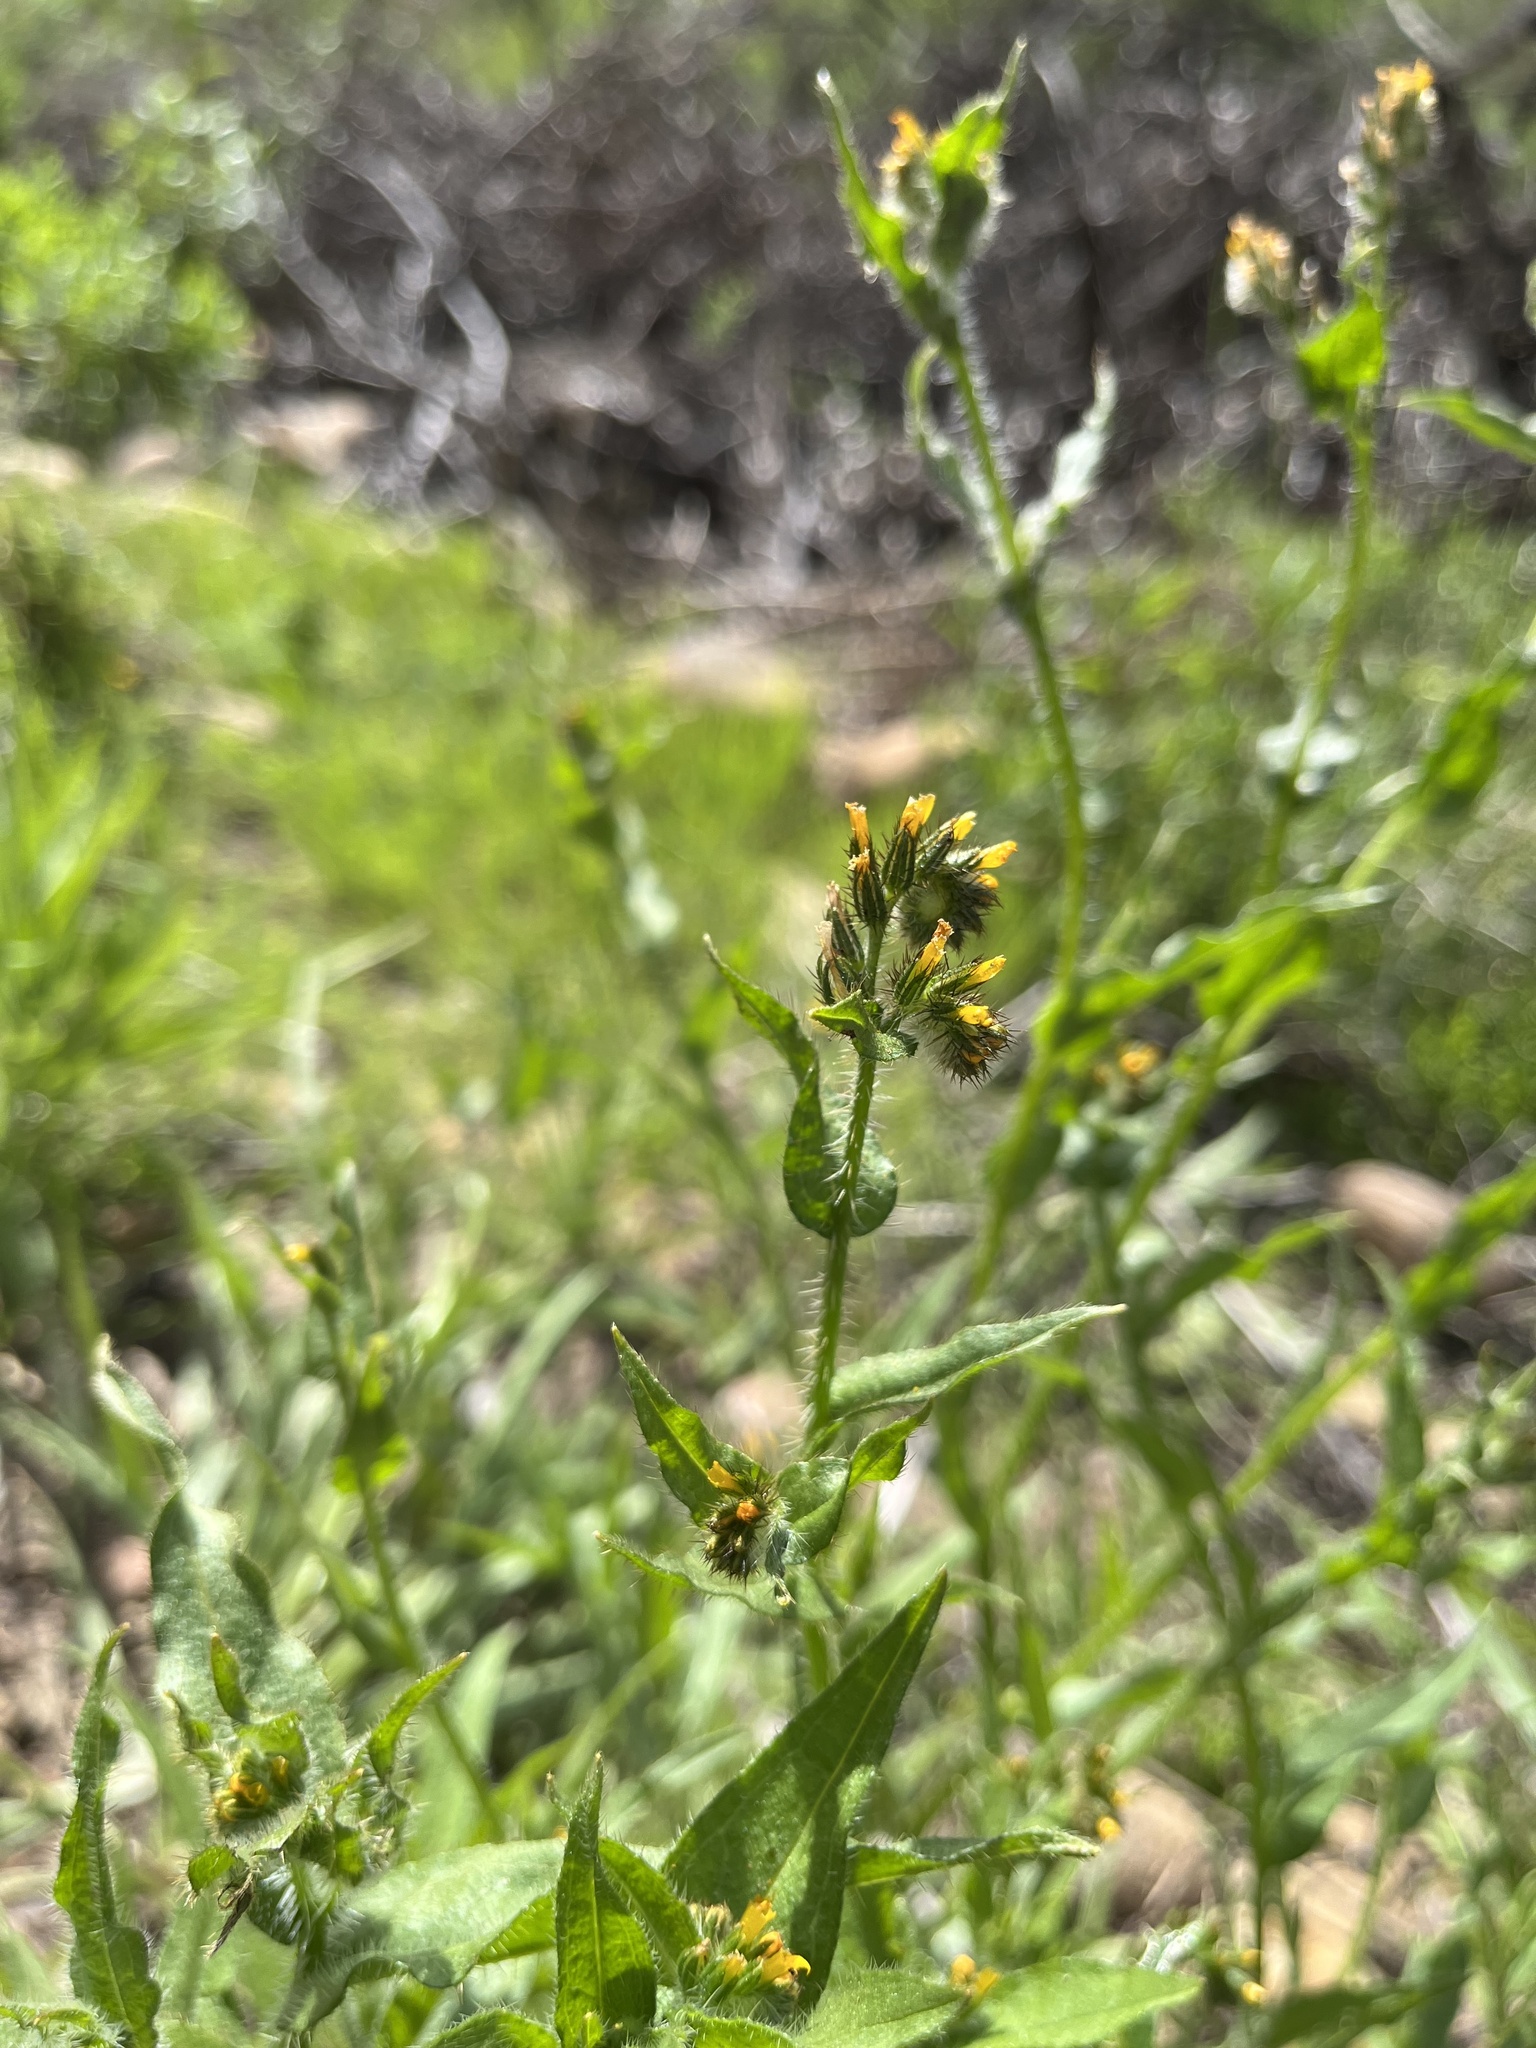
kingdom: Plantae
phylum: Tracheophyta
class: Magnoliopsida
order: Boraginales
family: Boraginaceae
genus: Amsinckia
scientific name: Amsinckia menziesii
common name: Menzies' fiddleneck
